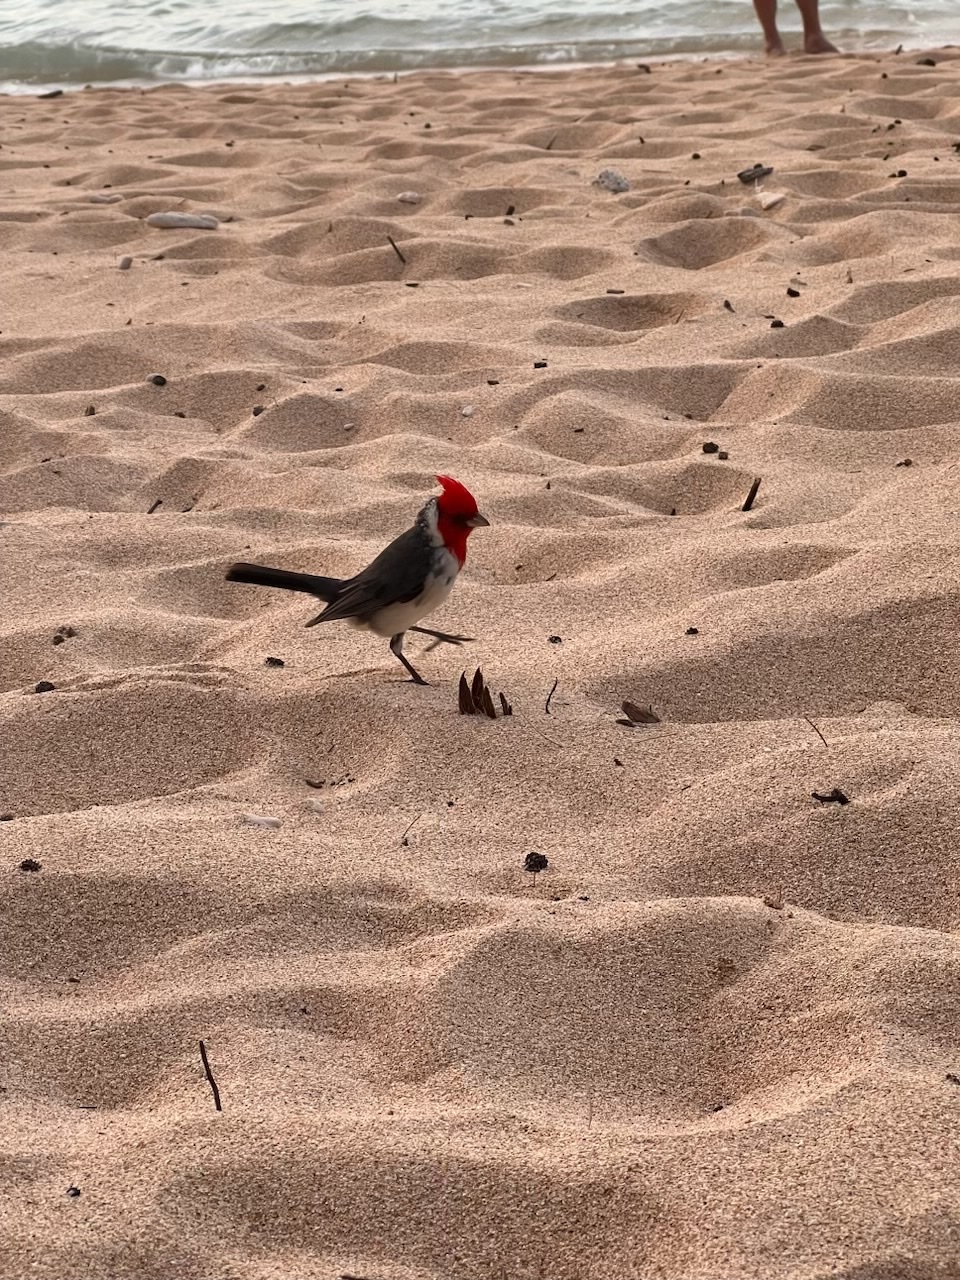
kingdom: Animalia
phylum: Chordata
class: Aves
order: Passeriformes
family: Thraupidae
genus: Paroaria
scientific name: Paroaria coronata
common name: Red-crested cardinal
